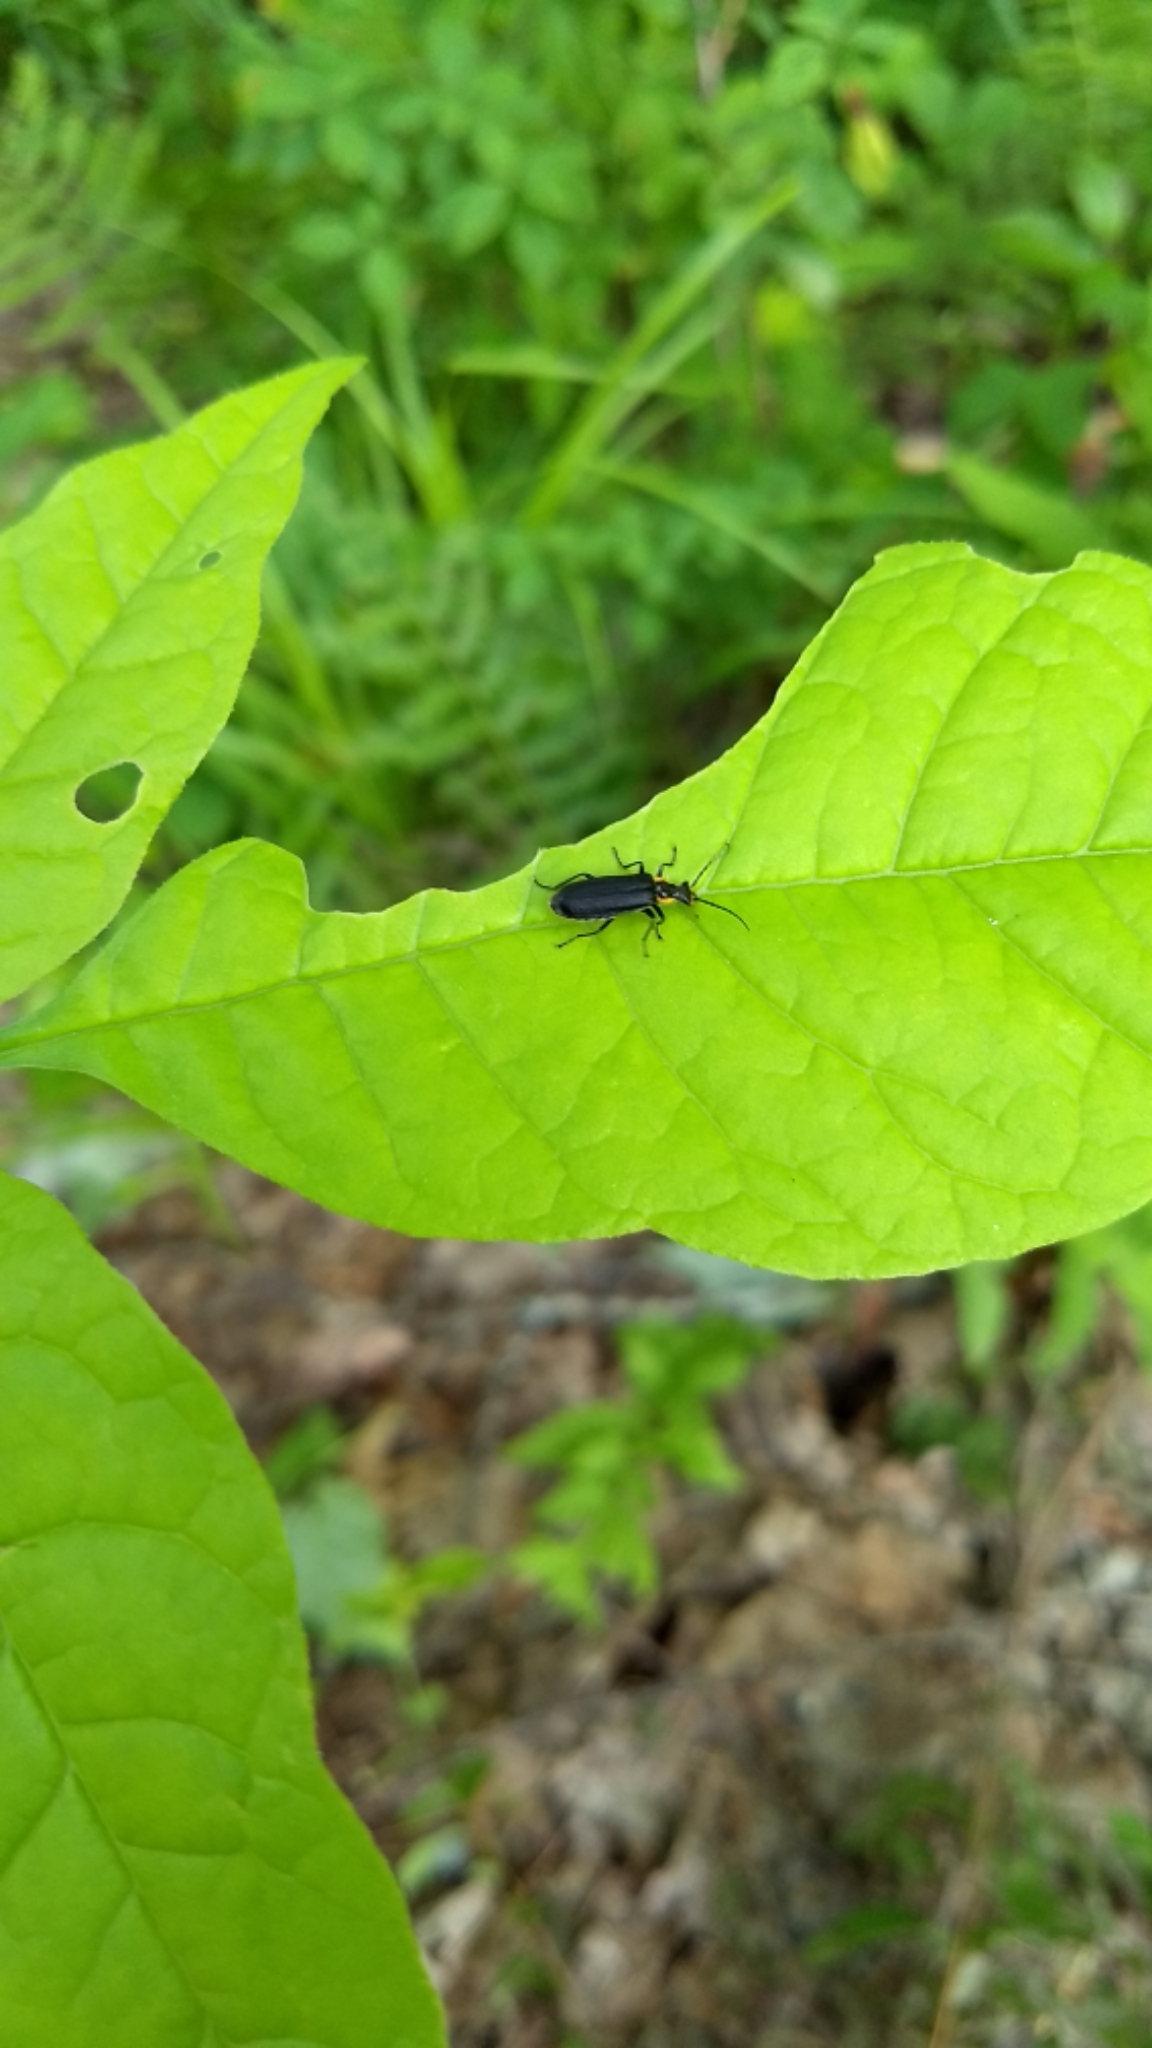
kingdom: Animalia
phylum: Arthropoda
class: Insecta
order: Coleoptera
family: Cantharidae
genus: Podabrus
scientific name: Podabrus rugosulus
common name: Wrinkled soldier beetle
